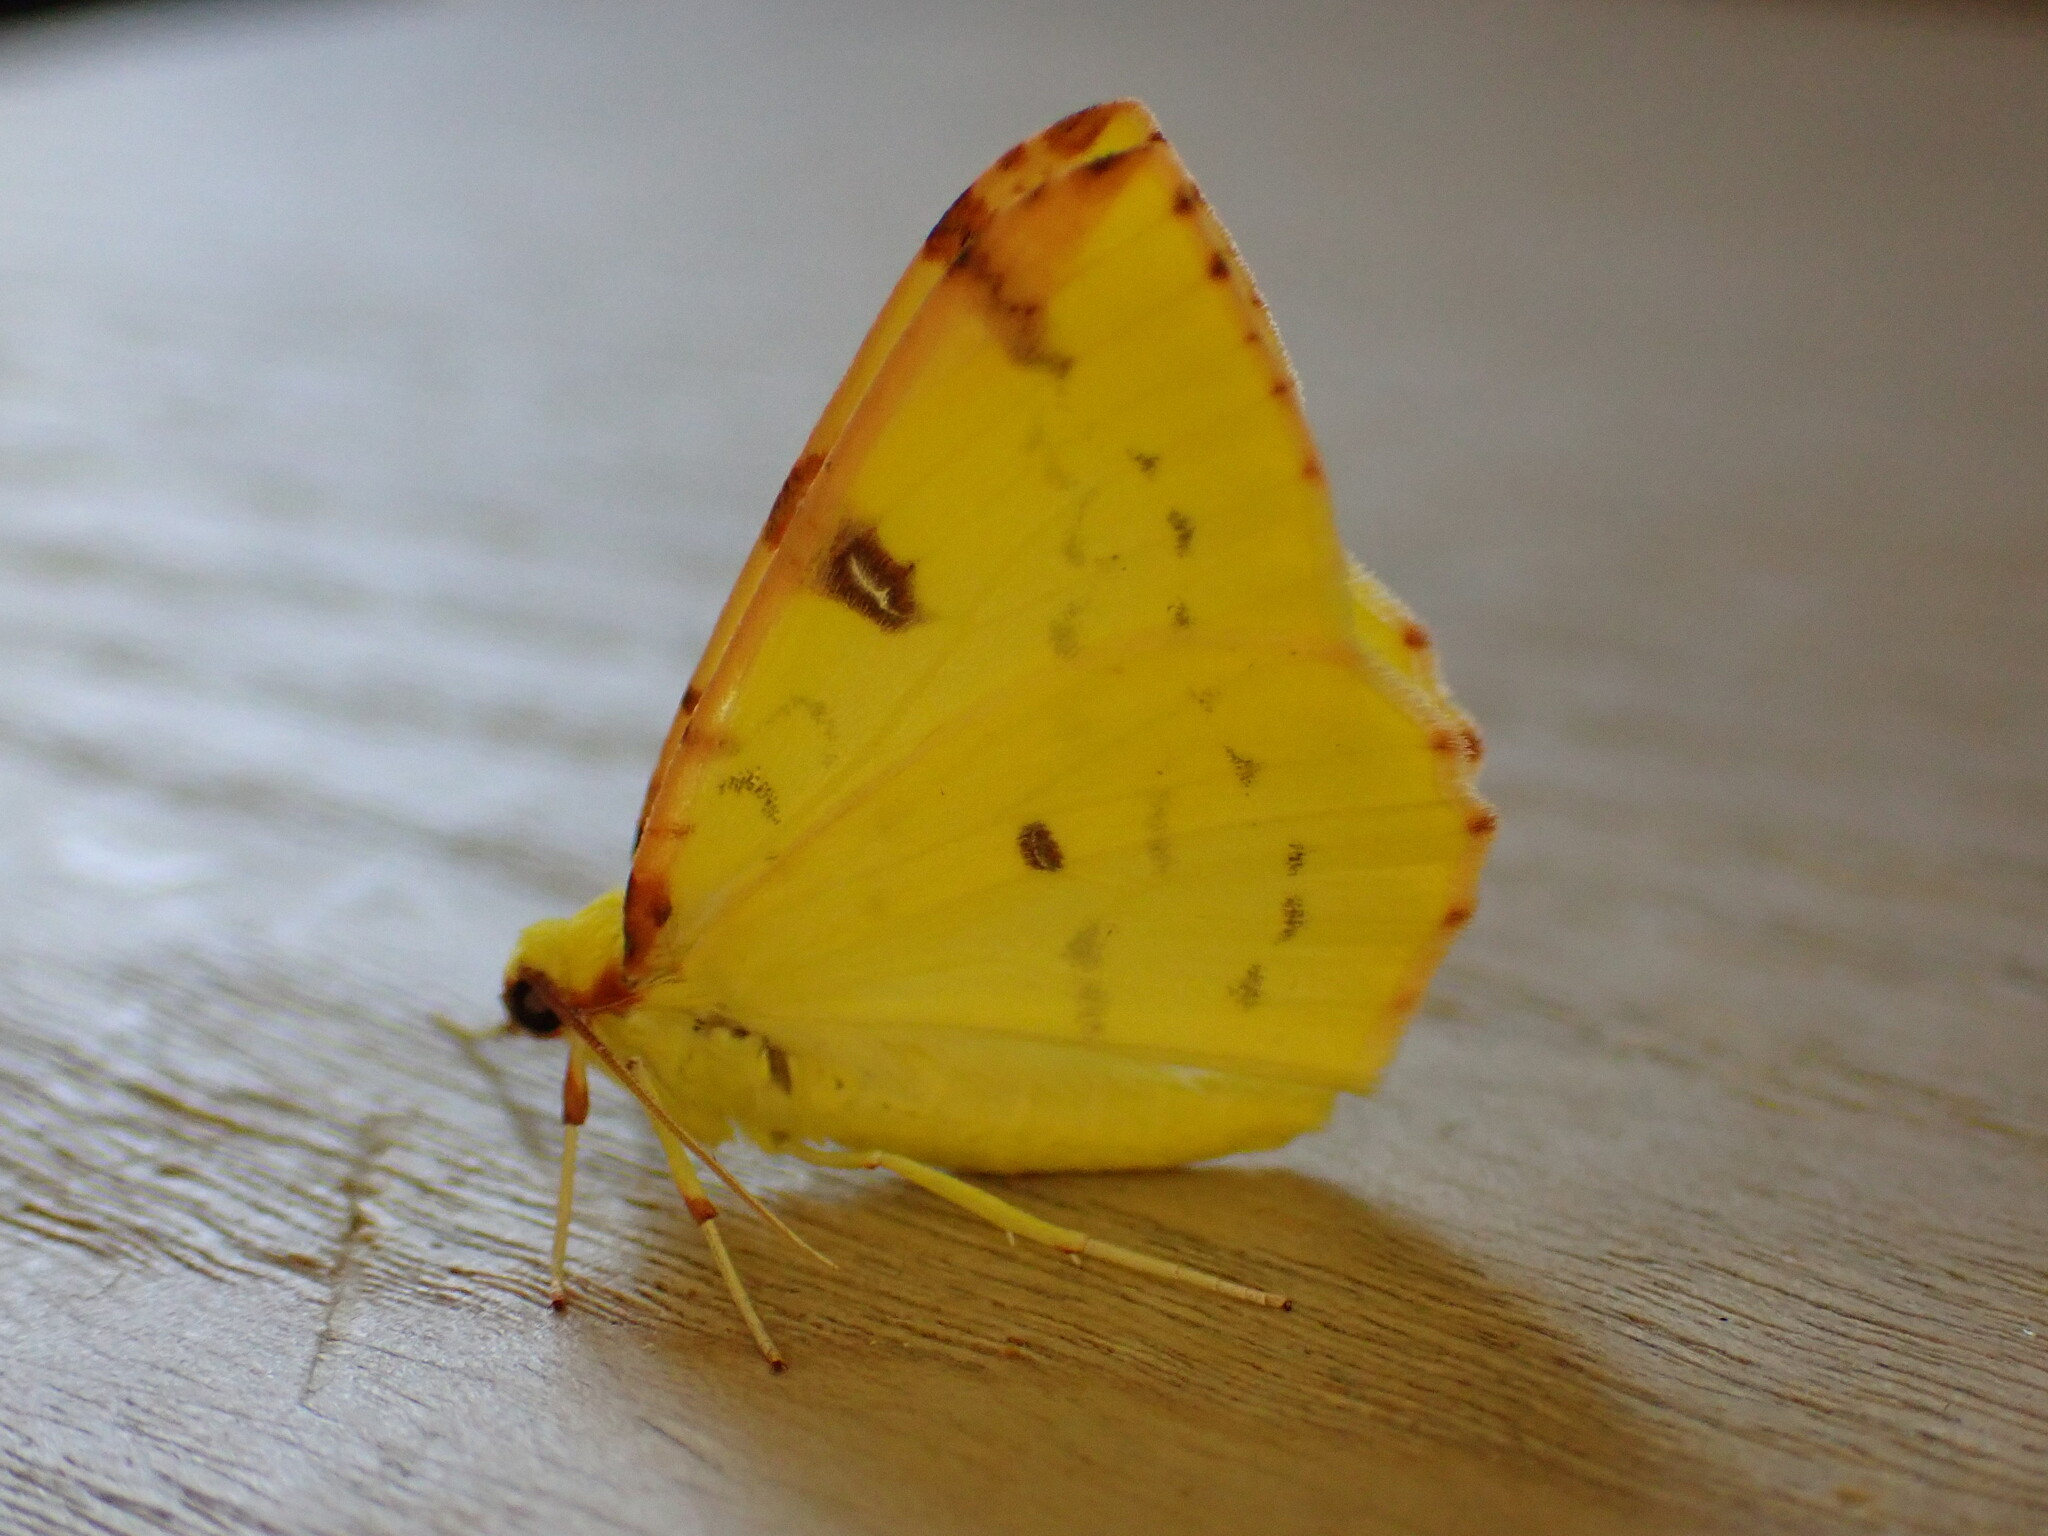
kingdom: Animalia
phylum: Arthropoda
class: Insecta
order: Lepidoptera
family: Geometridae
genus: Opisthograptis
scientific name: Opisthograptis luteolata
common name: Brimstone moth
